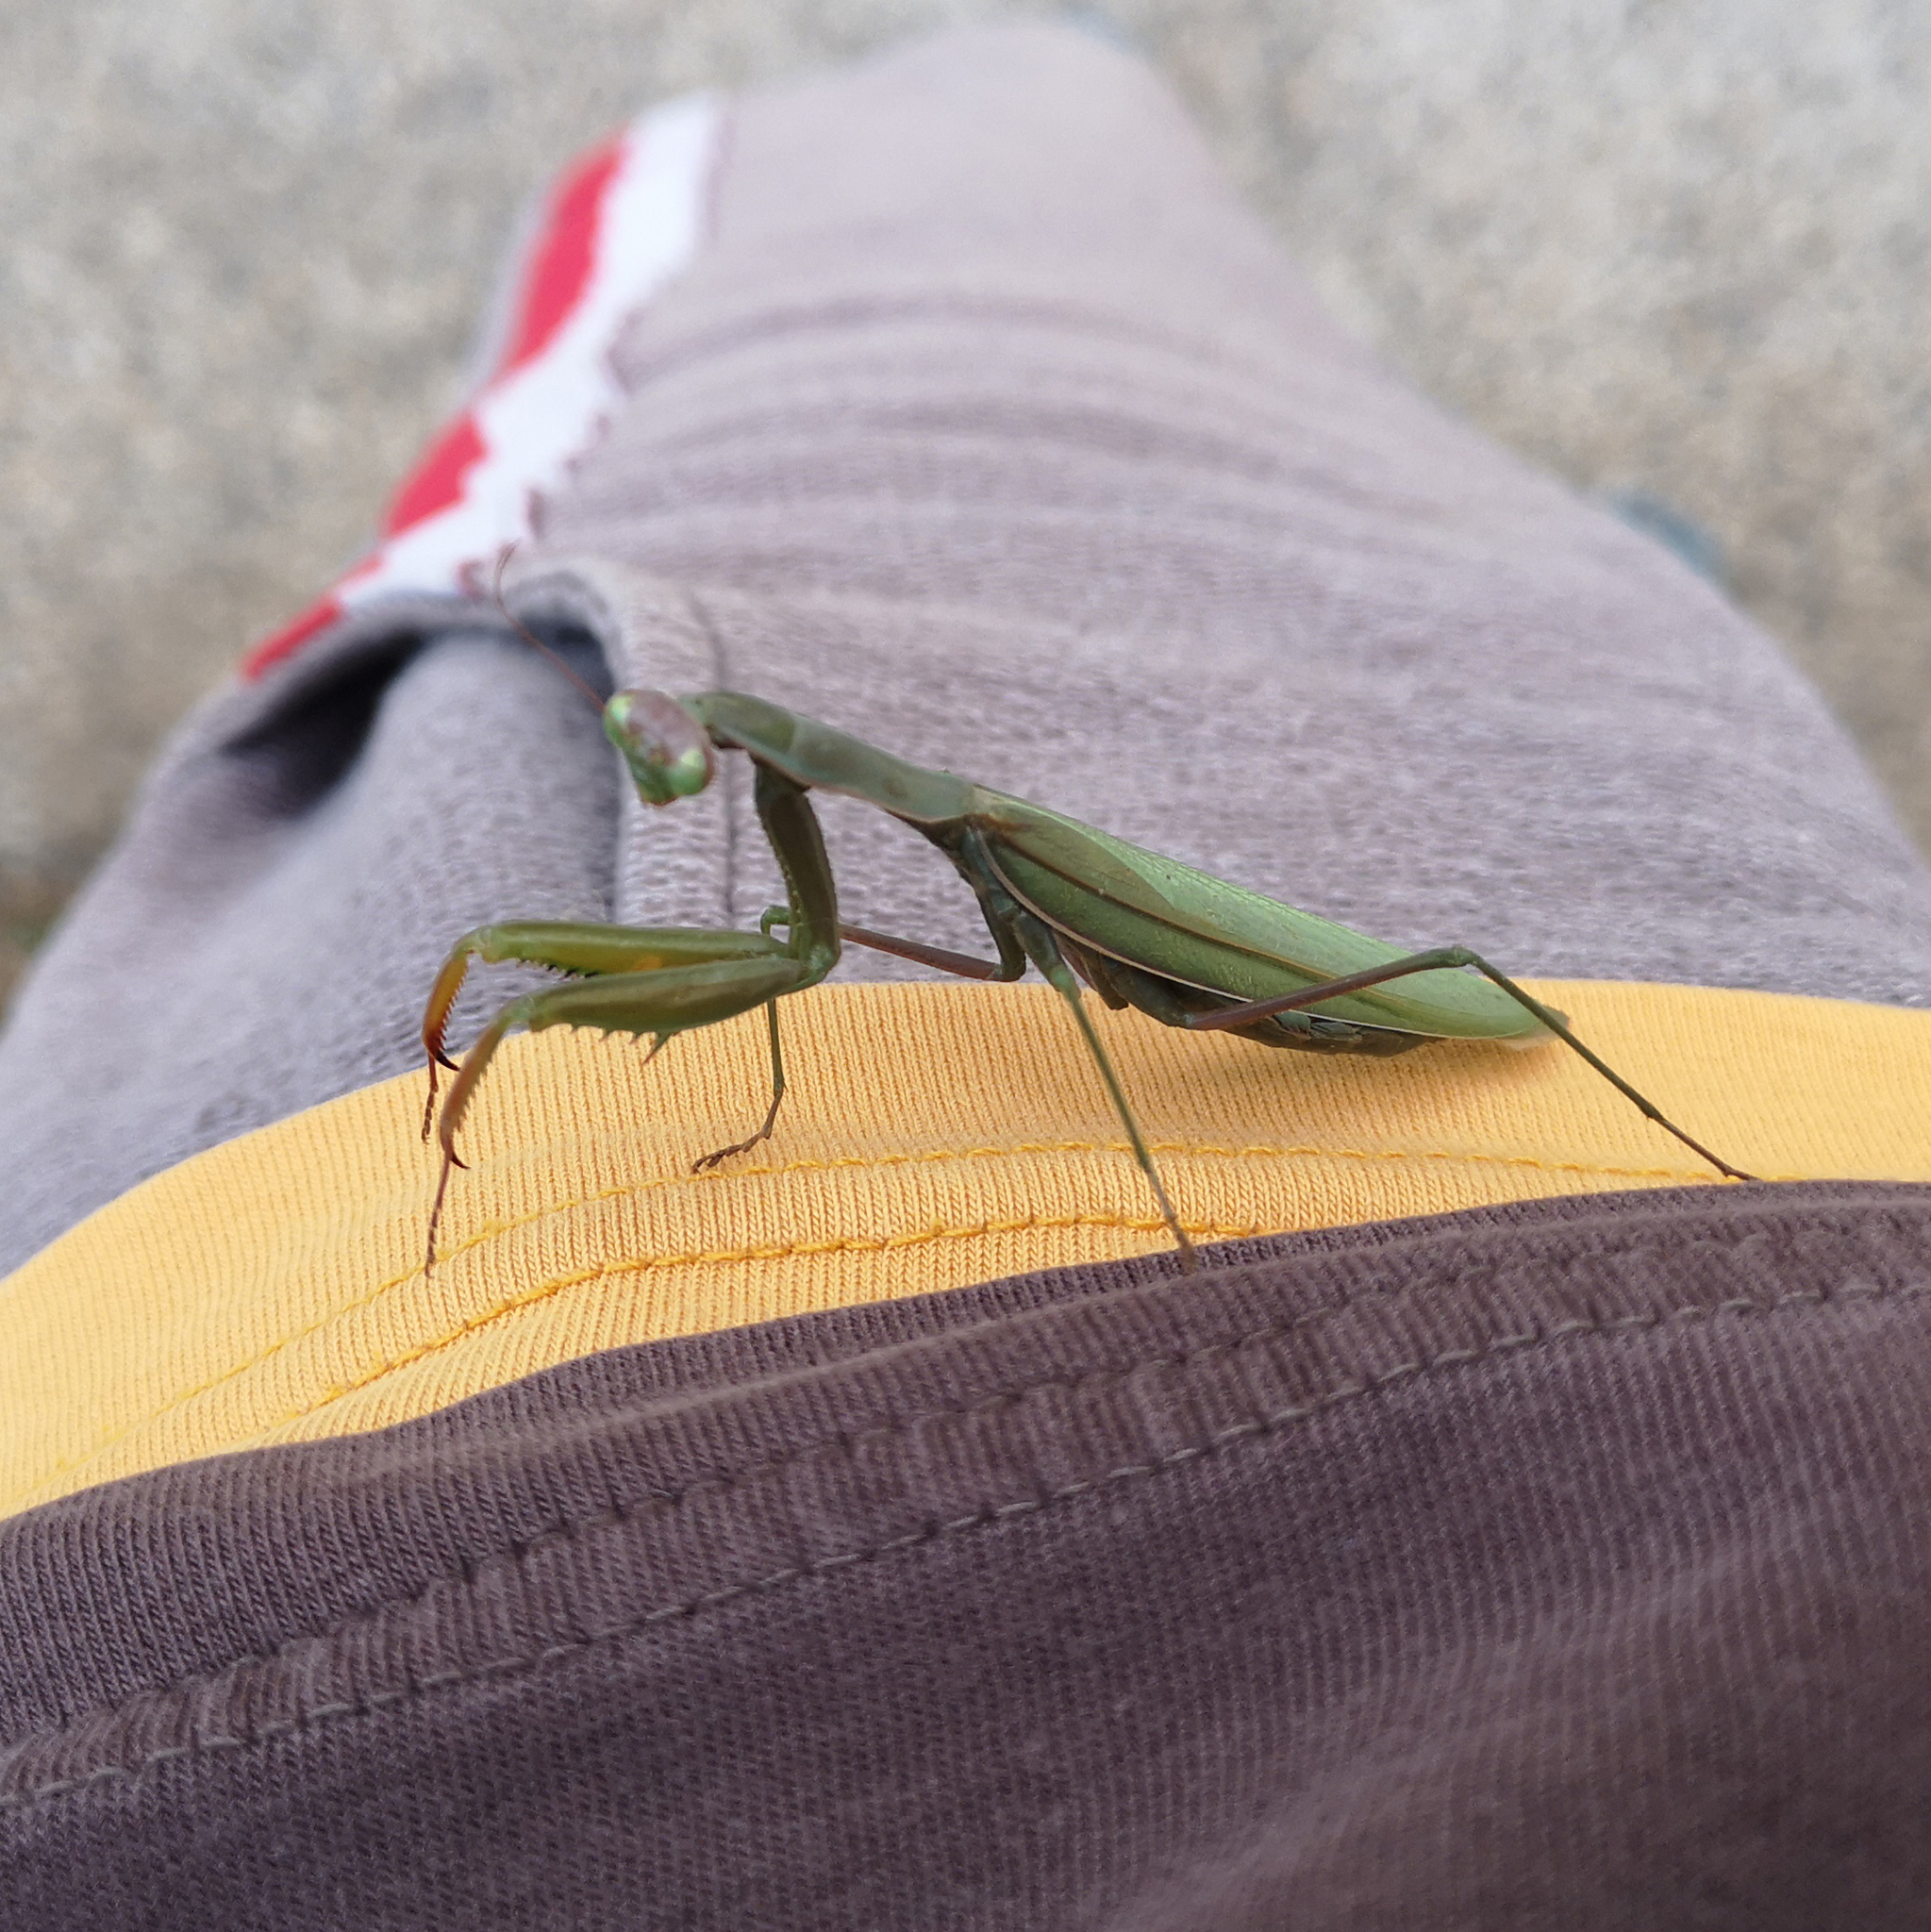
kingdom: Animalia
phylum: Arthropoda
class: Insecta
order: Mantodea
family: Mantidae
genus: Mantis
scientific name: Mantis religiosa
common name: Praying mantis
